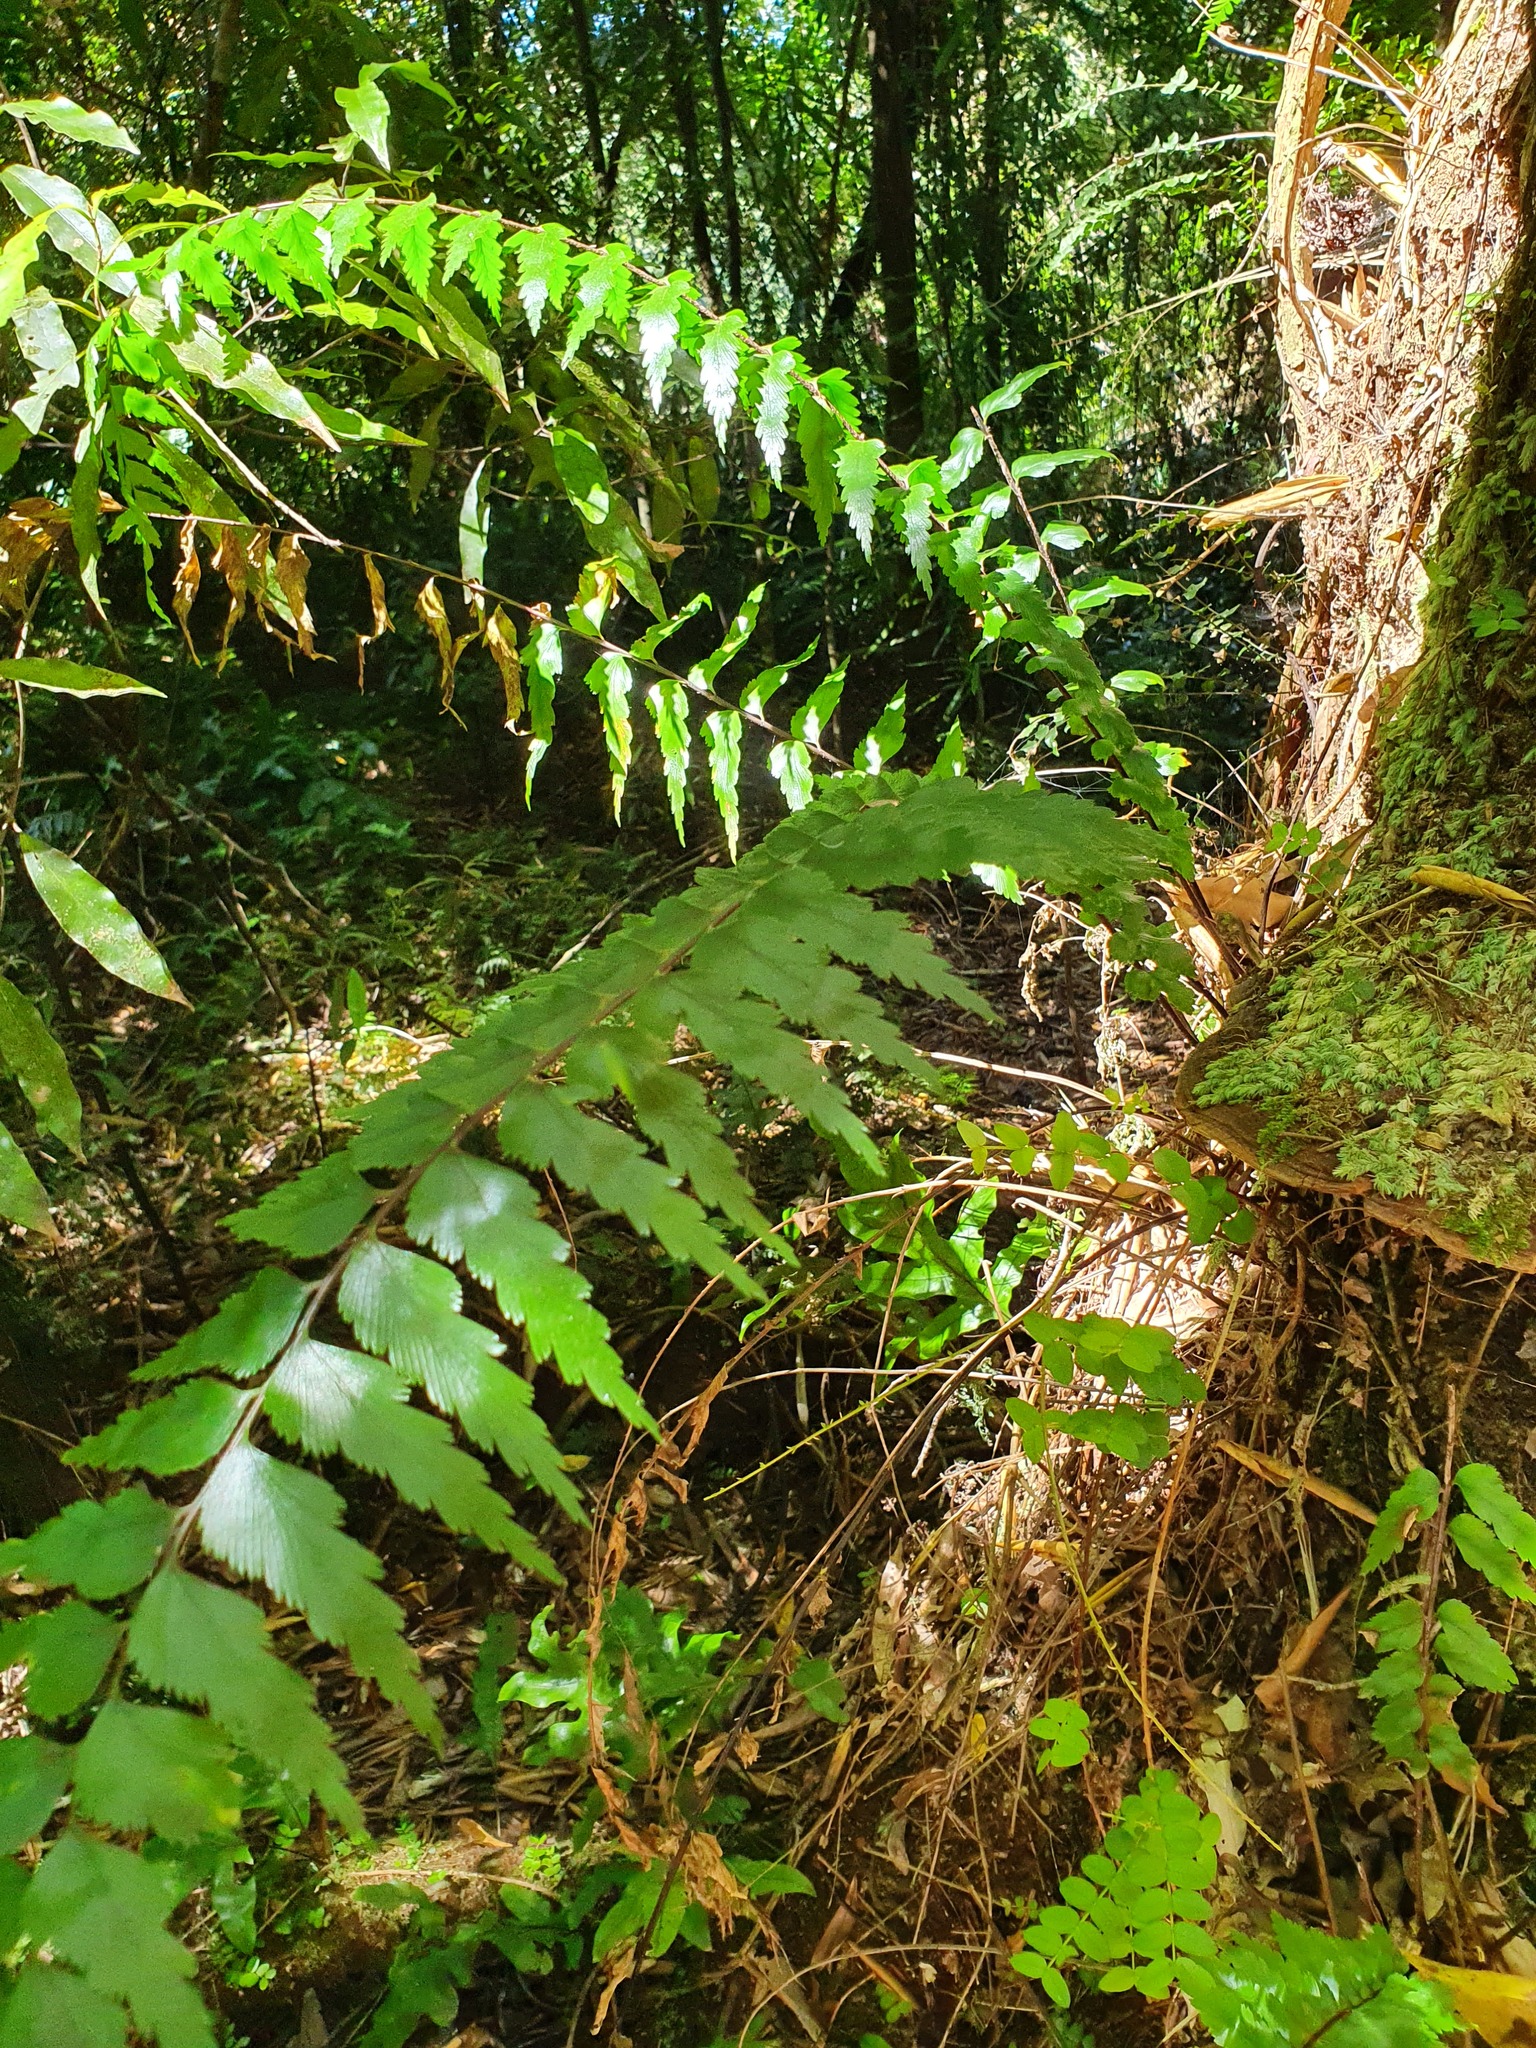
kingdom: Plantae
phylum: Tracheophyta
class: Polypodiopsida
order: Polypodiales
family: Aspleniaceae
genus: Asplenium
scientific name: Asplenium polyodon
